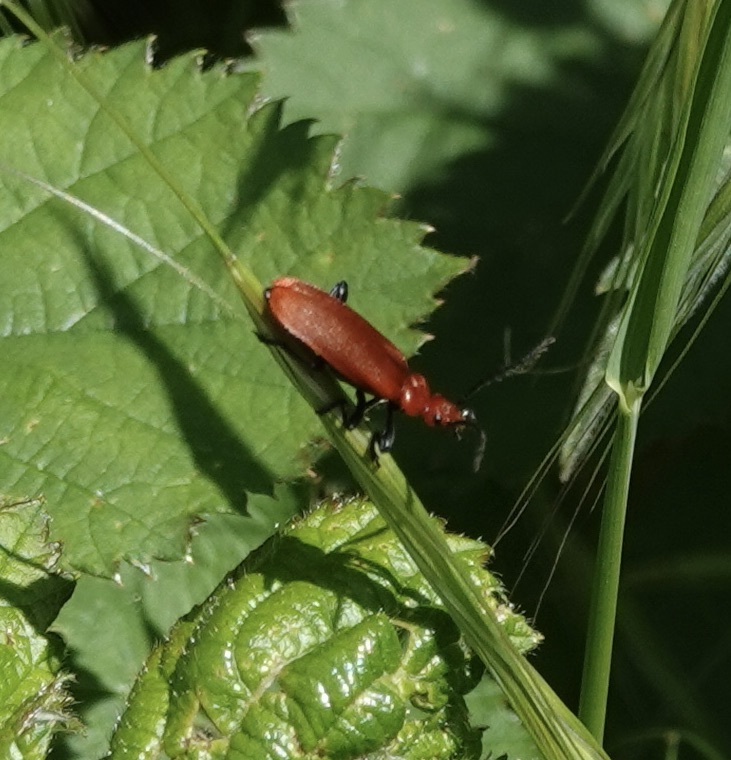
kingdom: Animalia
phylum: Arthropoda
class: Insecta
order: Coleoptera
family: Pyrochroidae
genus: Pyrochroa
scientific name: Pyrochroa serraticornis
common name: Red-headed cardinal beetle
